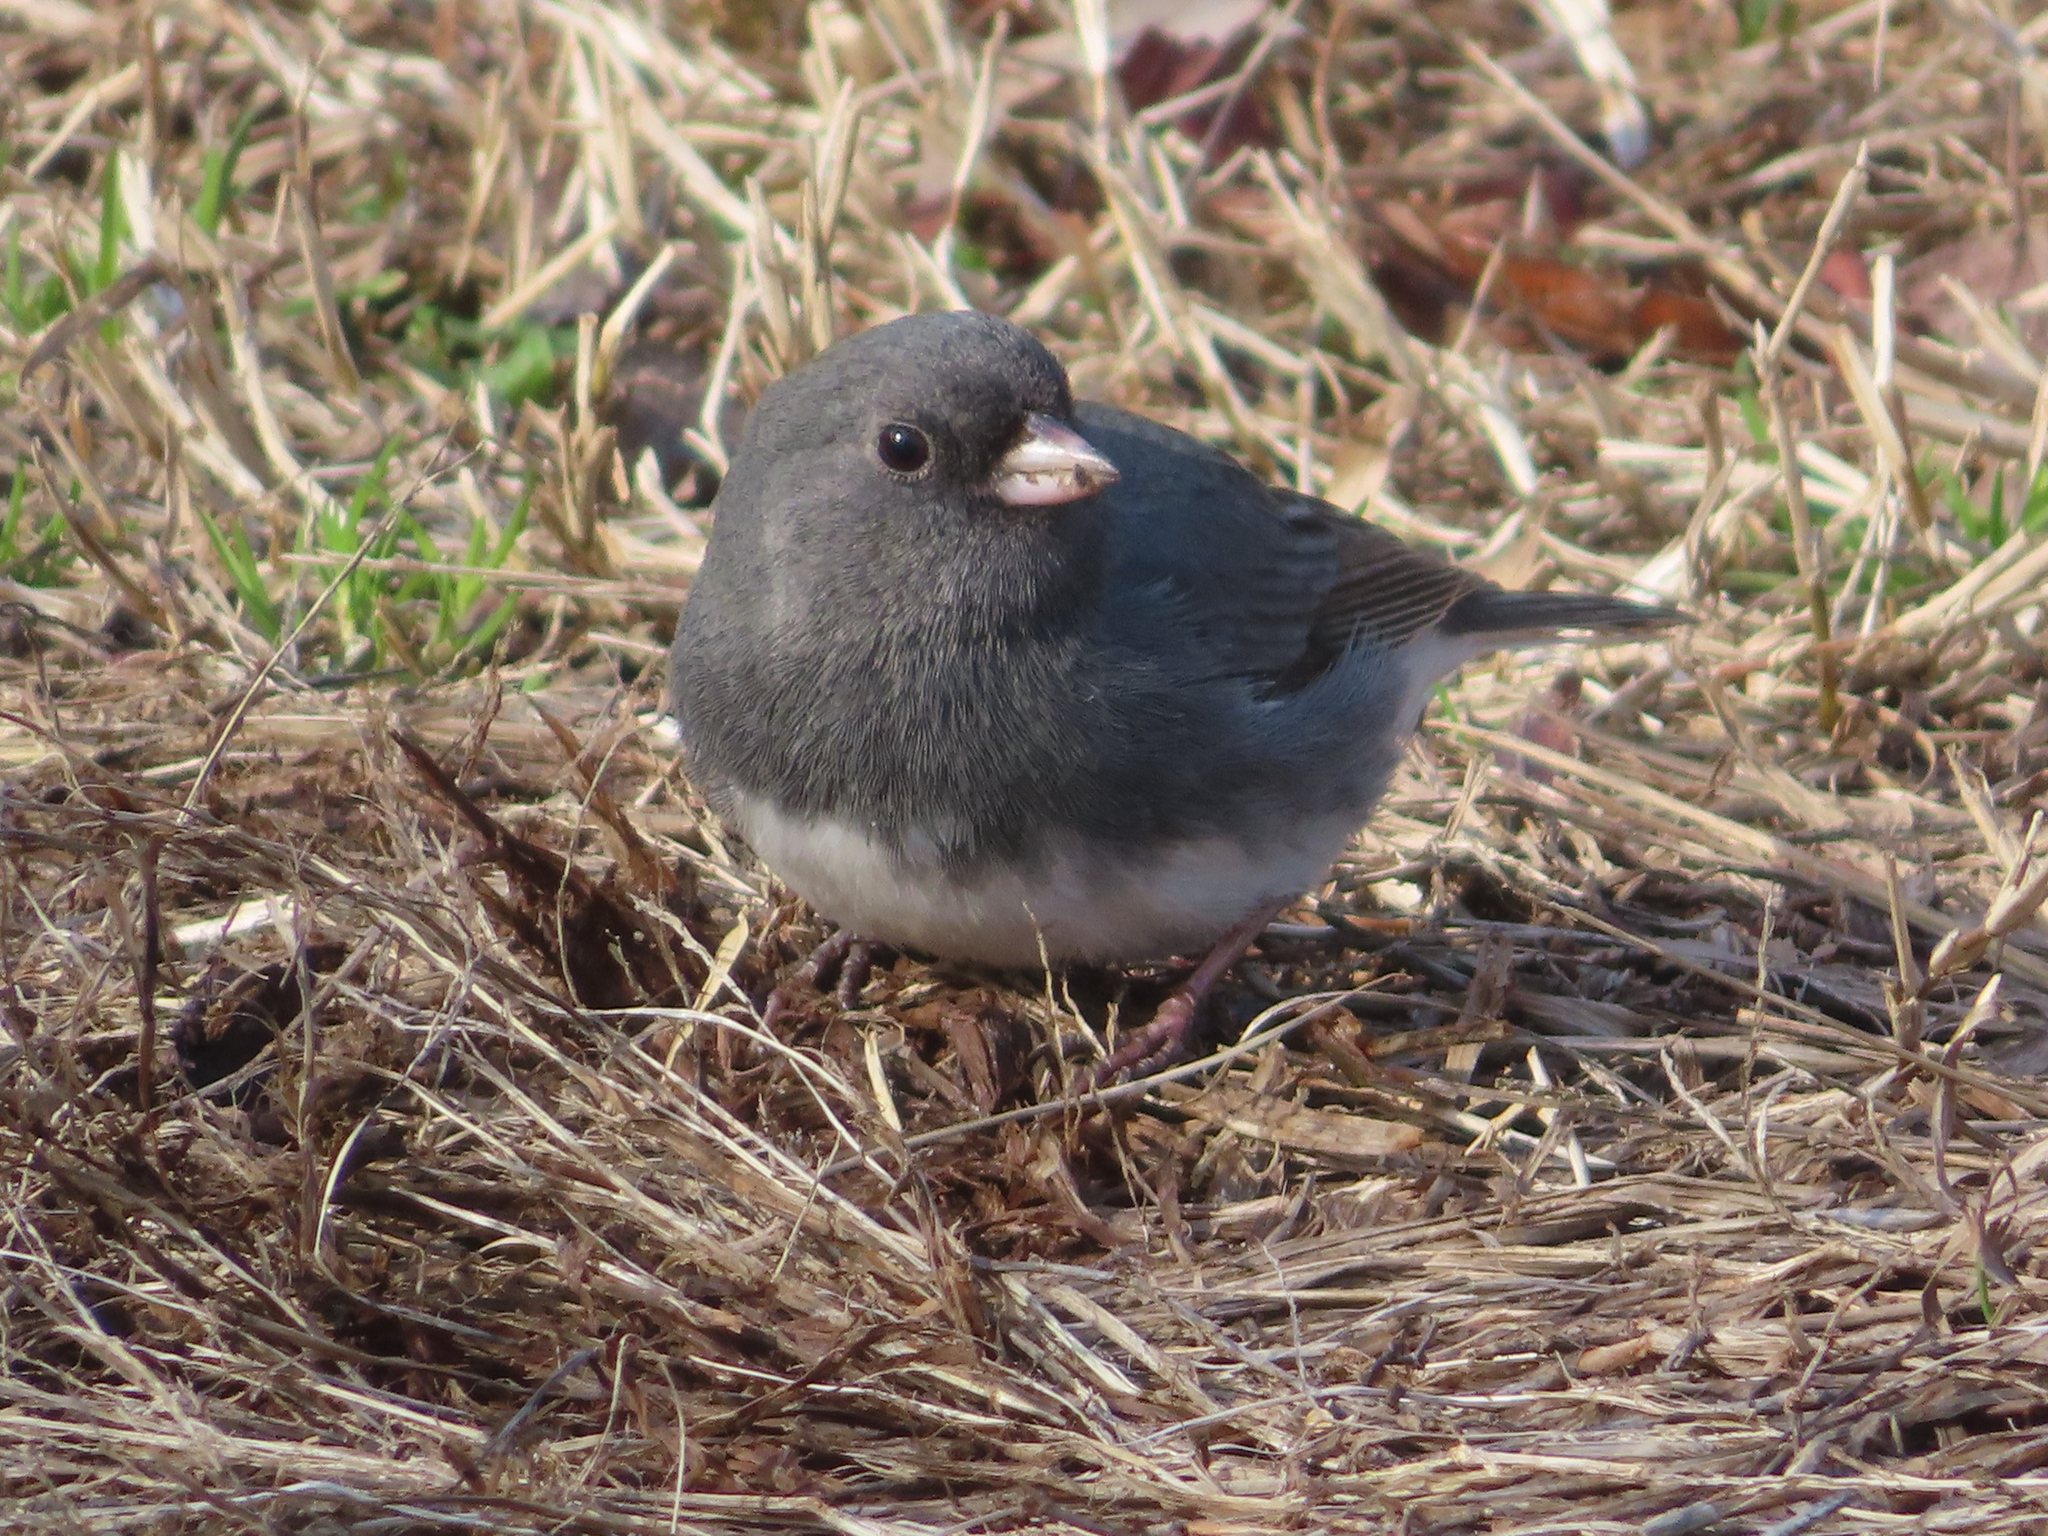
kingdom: Animalia
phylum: Chordata
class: Aves
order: Passeriformes
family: Passerellidae
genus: Junco
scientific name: Junco hyemalis
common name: Dark-eyed junco
